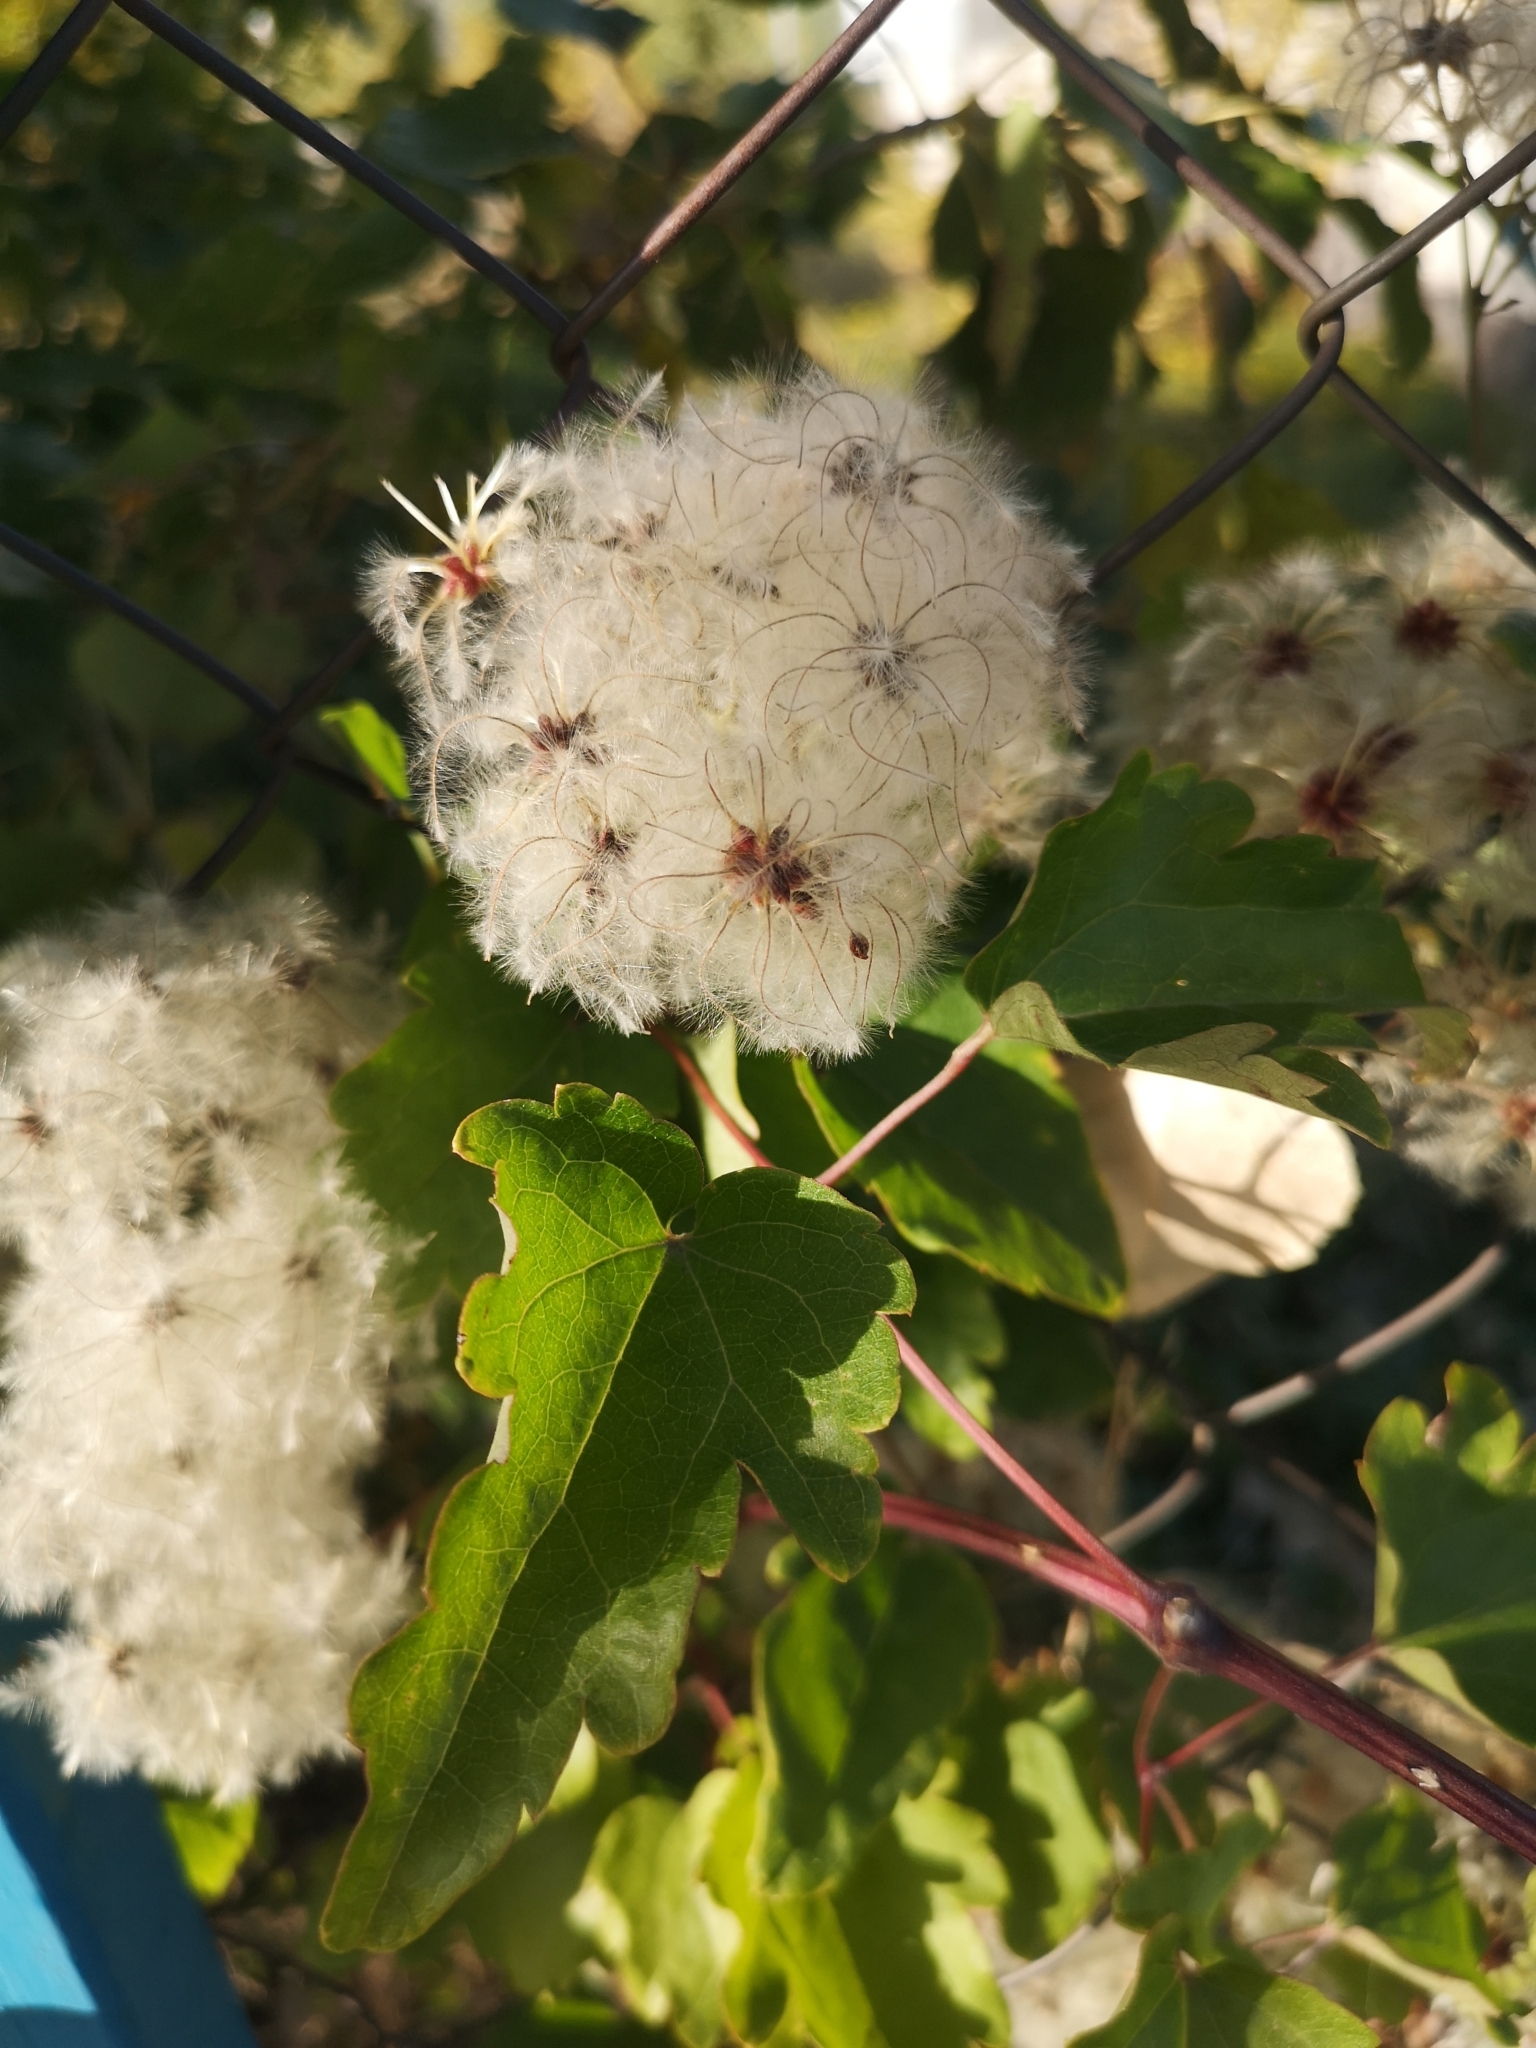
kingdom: Plantae
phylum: Tracheophyta
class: Magnoliopsida
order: Ranunculales
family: Ranunculaceae
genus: Clematis
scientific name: Clematis vitalba
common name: Evergreen clematis
